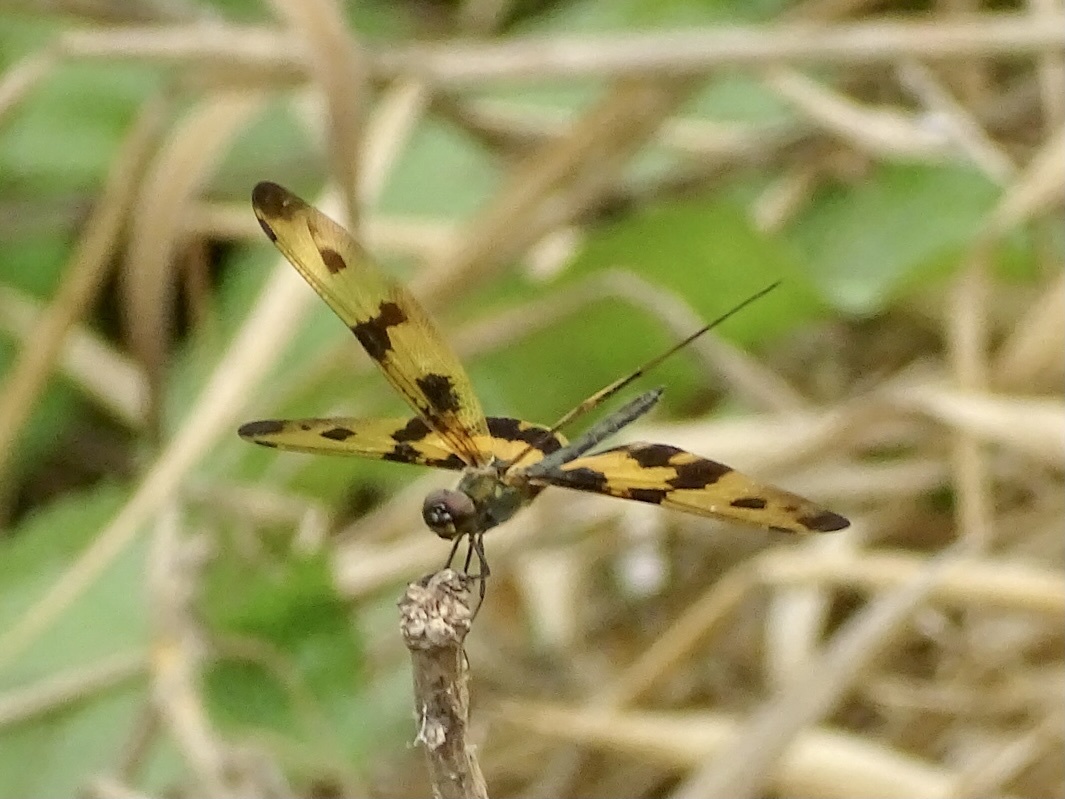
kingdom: Animalia
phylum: Arthropoda
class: Insecta
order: Odonata
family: Libellulidae
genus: Rhyothemis
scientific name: Rhyothemis variegata
